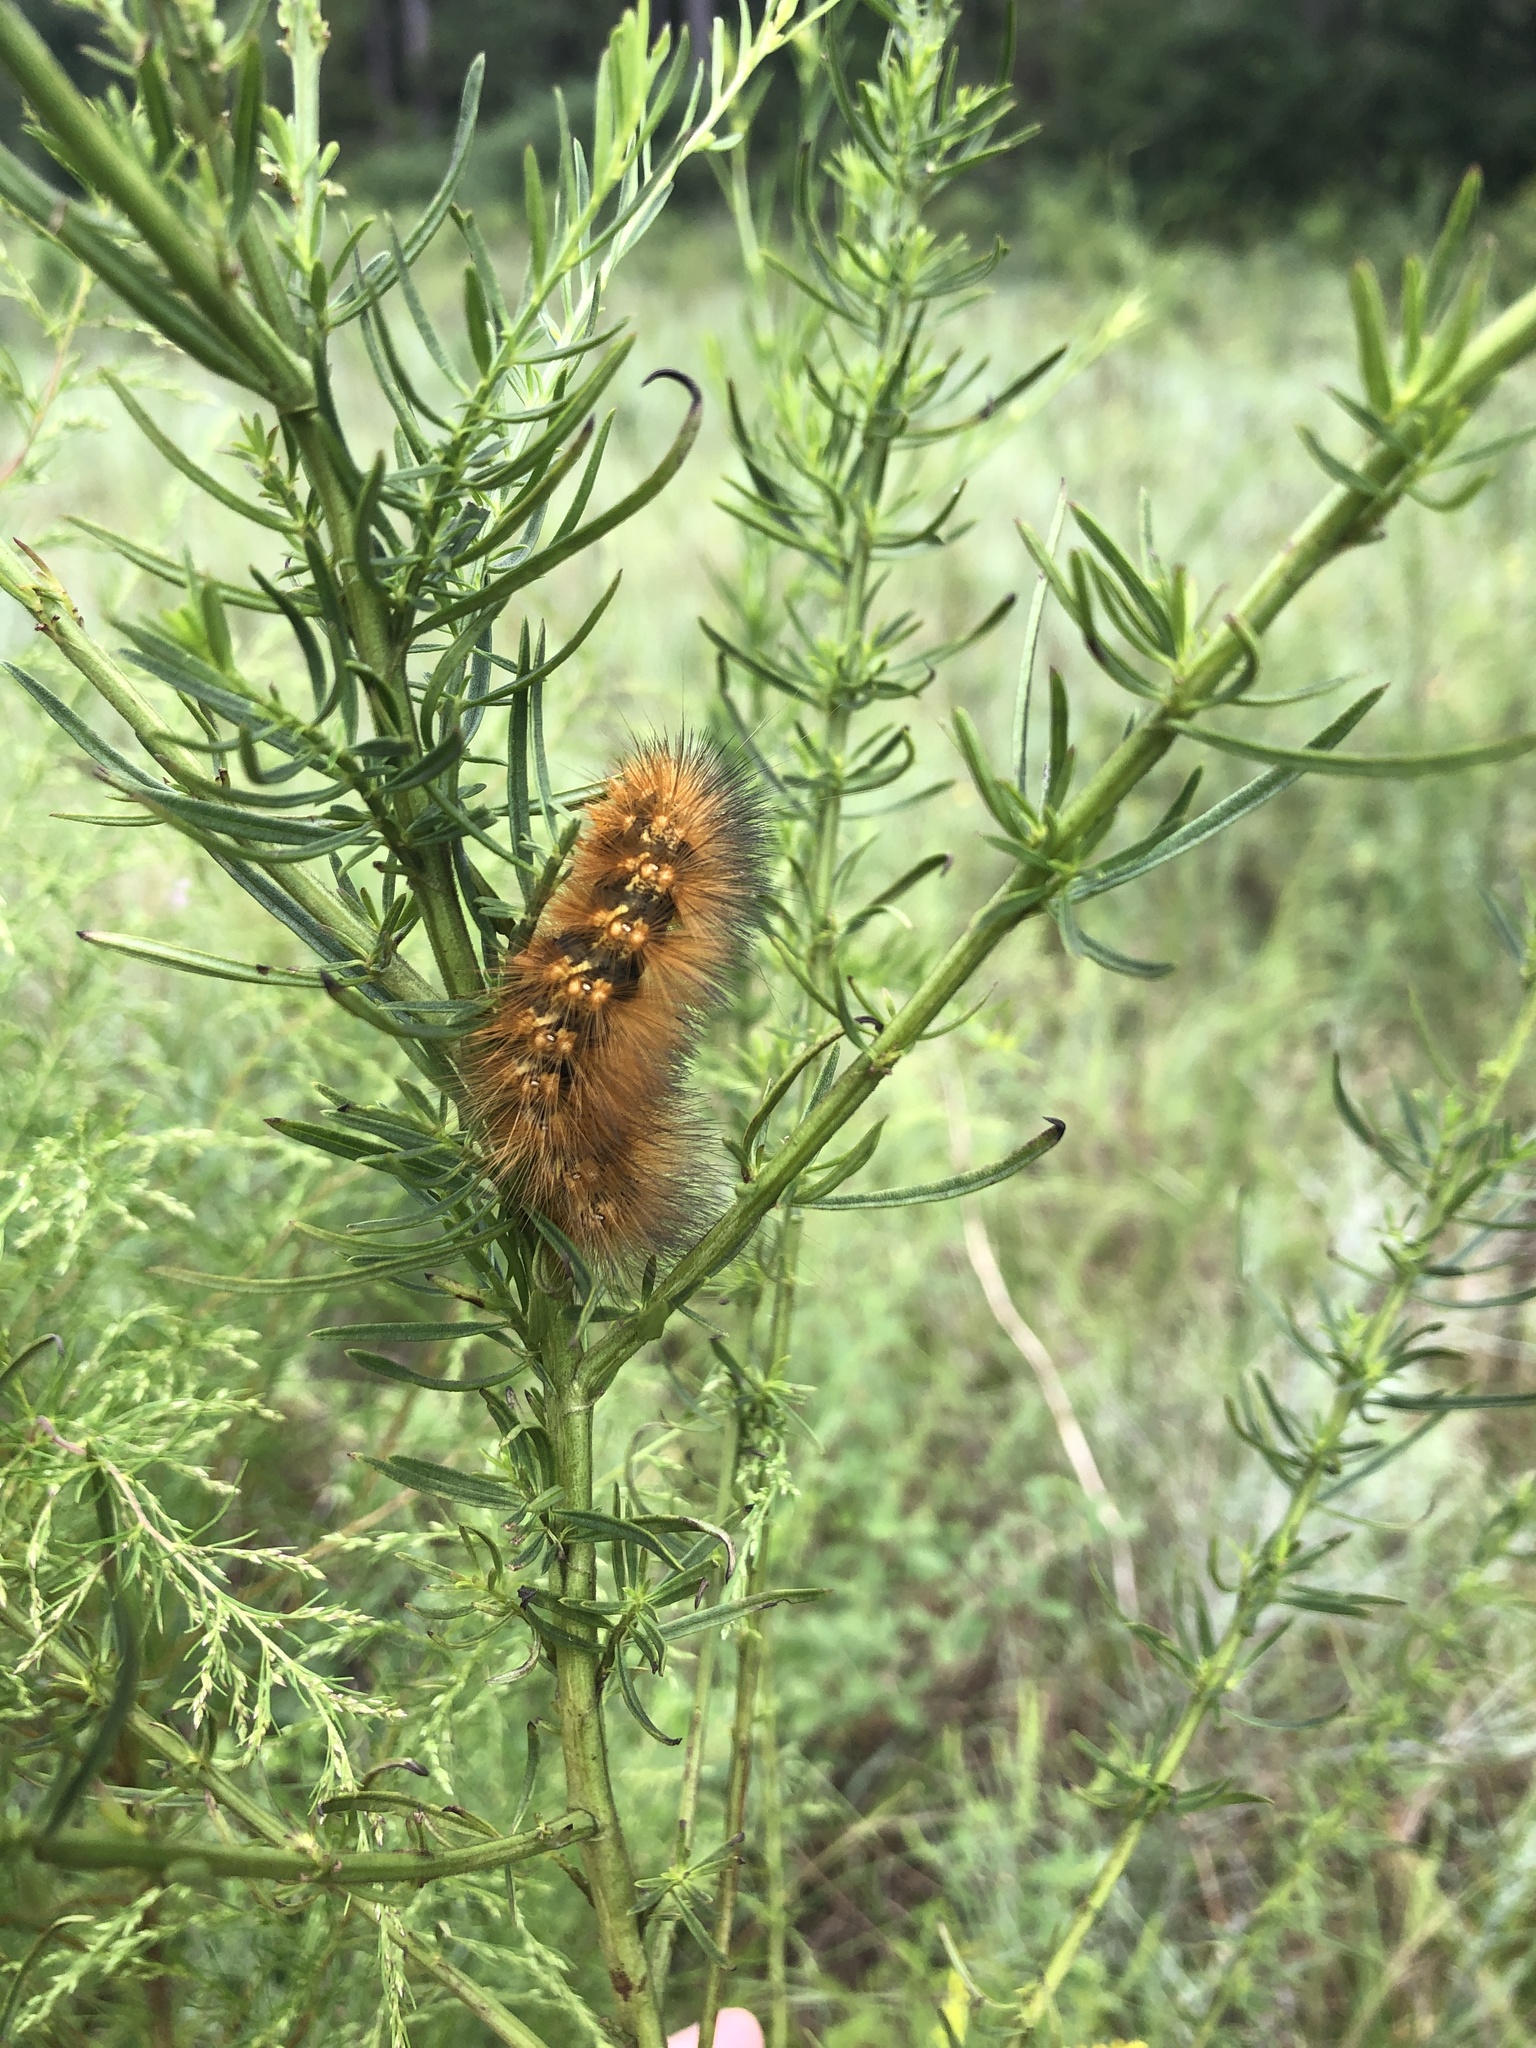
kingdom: Animalia
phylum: Arthropoda
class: Insecta
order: Lepidoptera
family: Erebidae
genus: Estigmene
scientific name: Estigmene acrea
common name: Salt marsh moth
